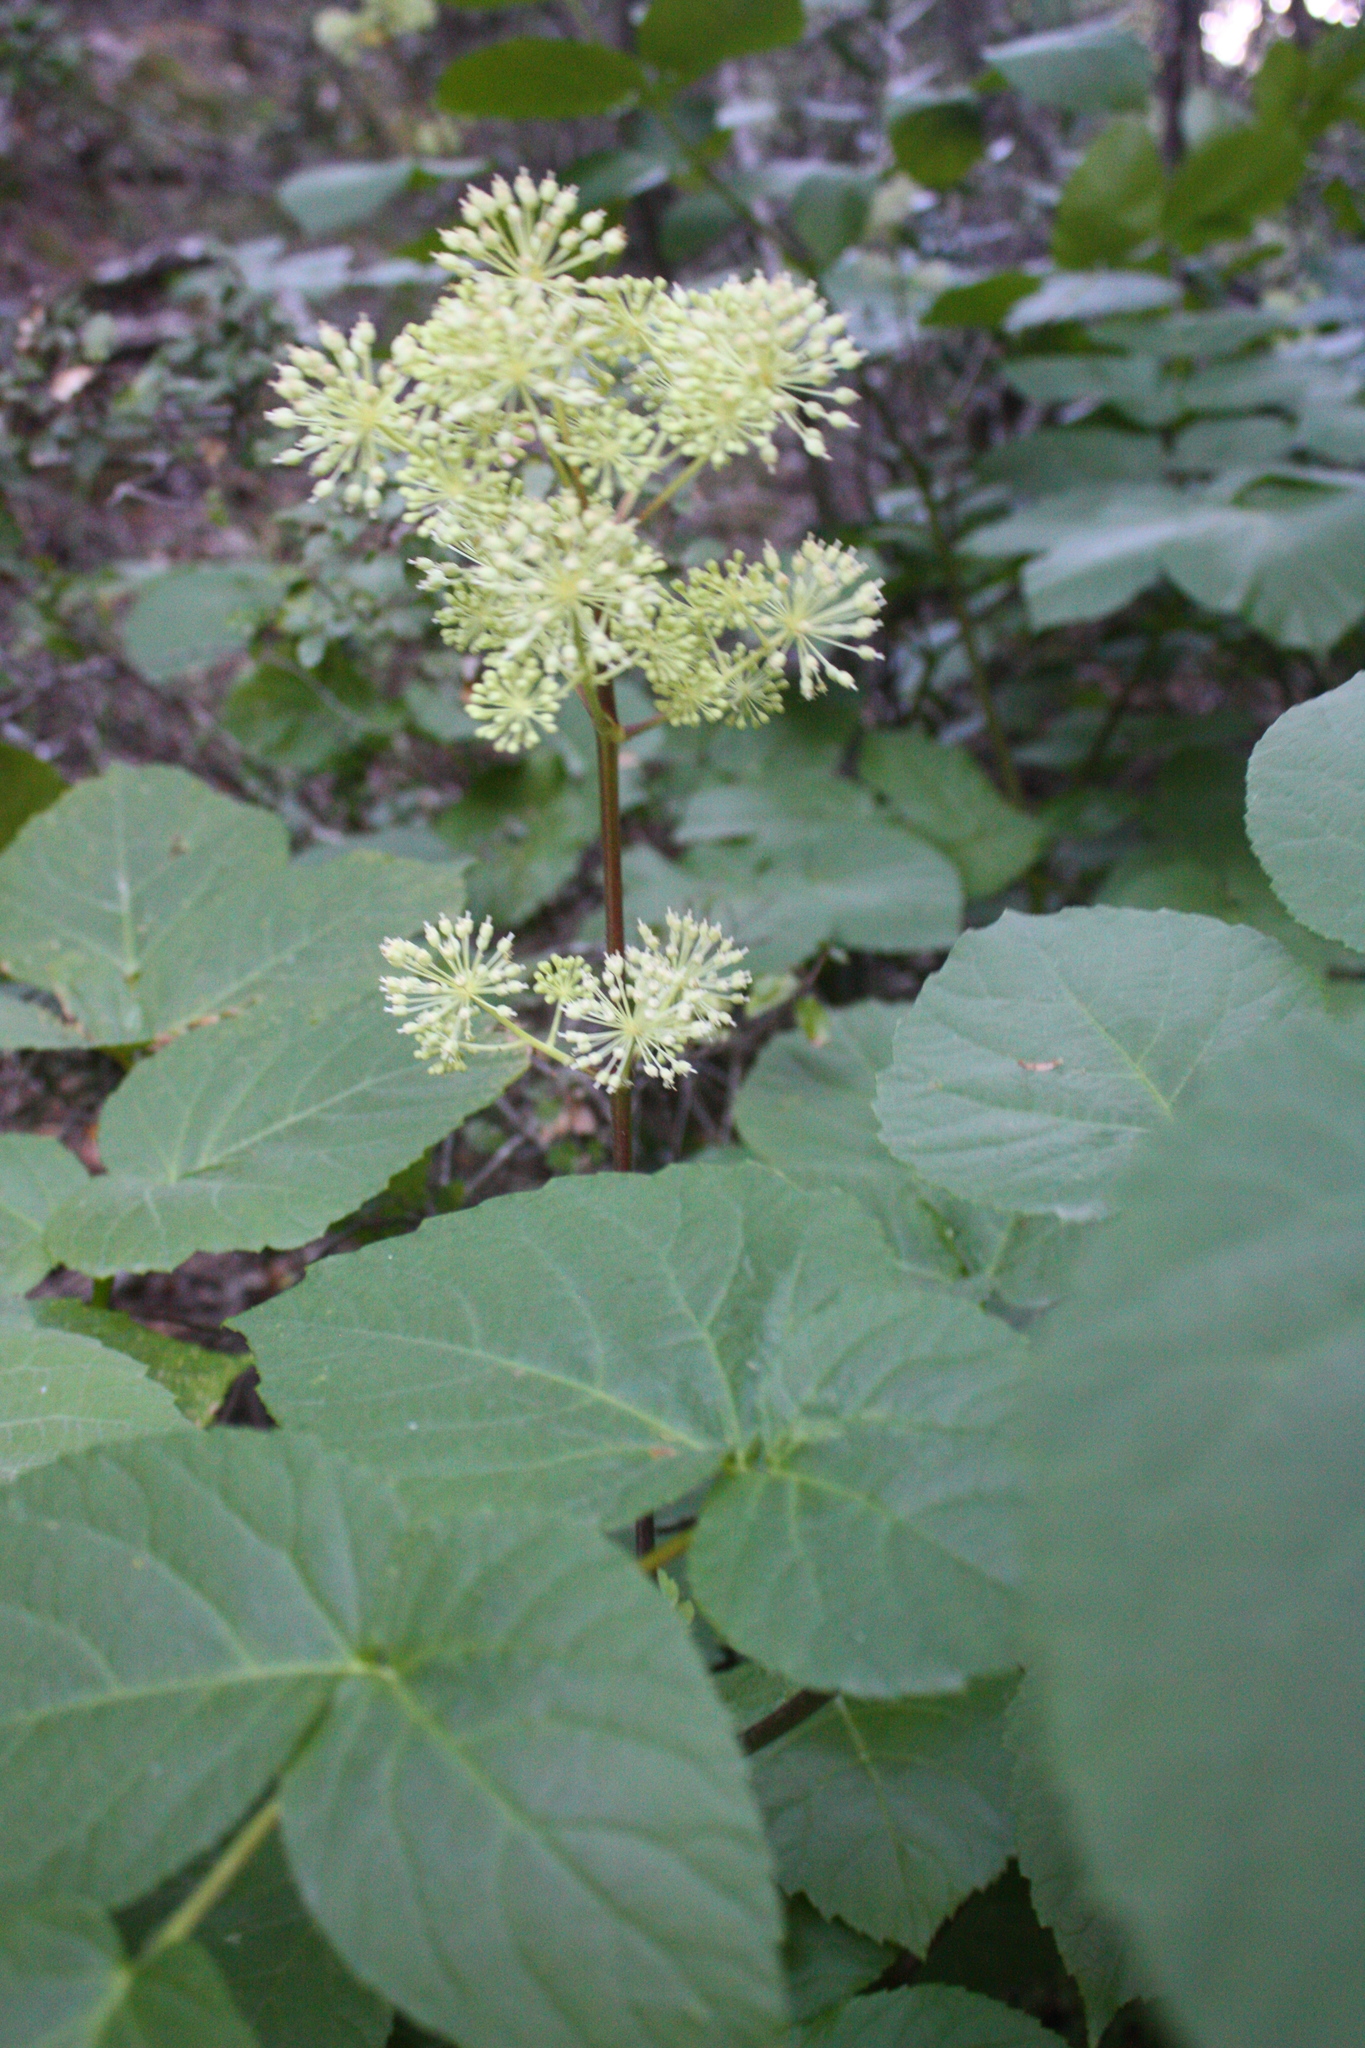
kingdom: Plantae
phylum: Tracheophyta
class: Magnoliopsida
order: Apiales
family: Araliaceae
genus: Aralia
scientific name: Aralia californica
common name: California-ginseng
